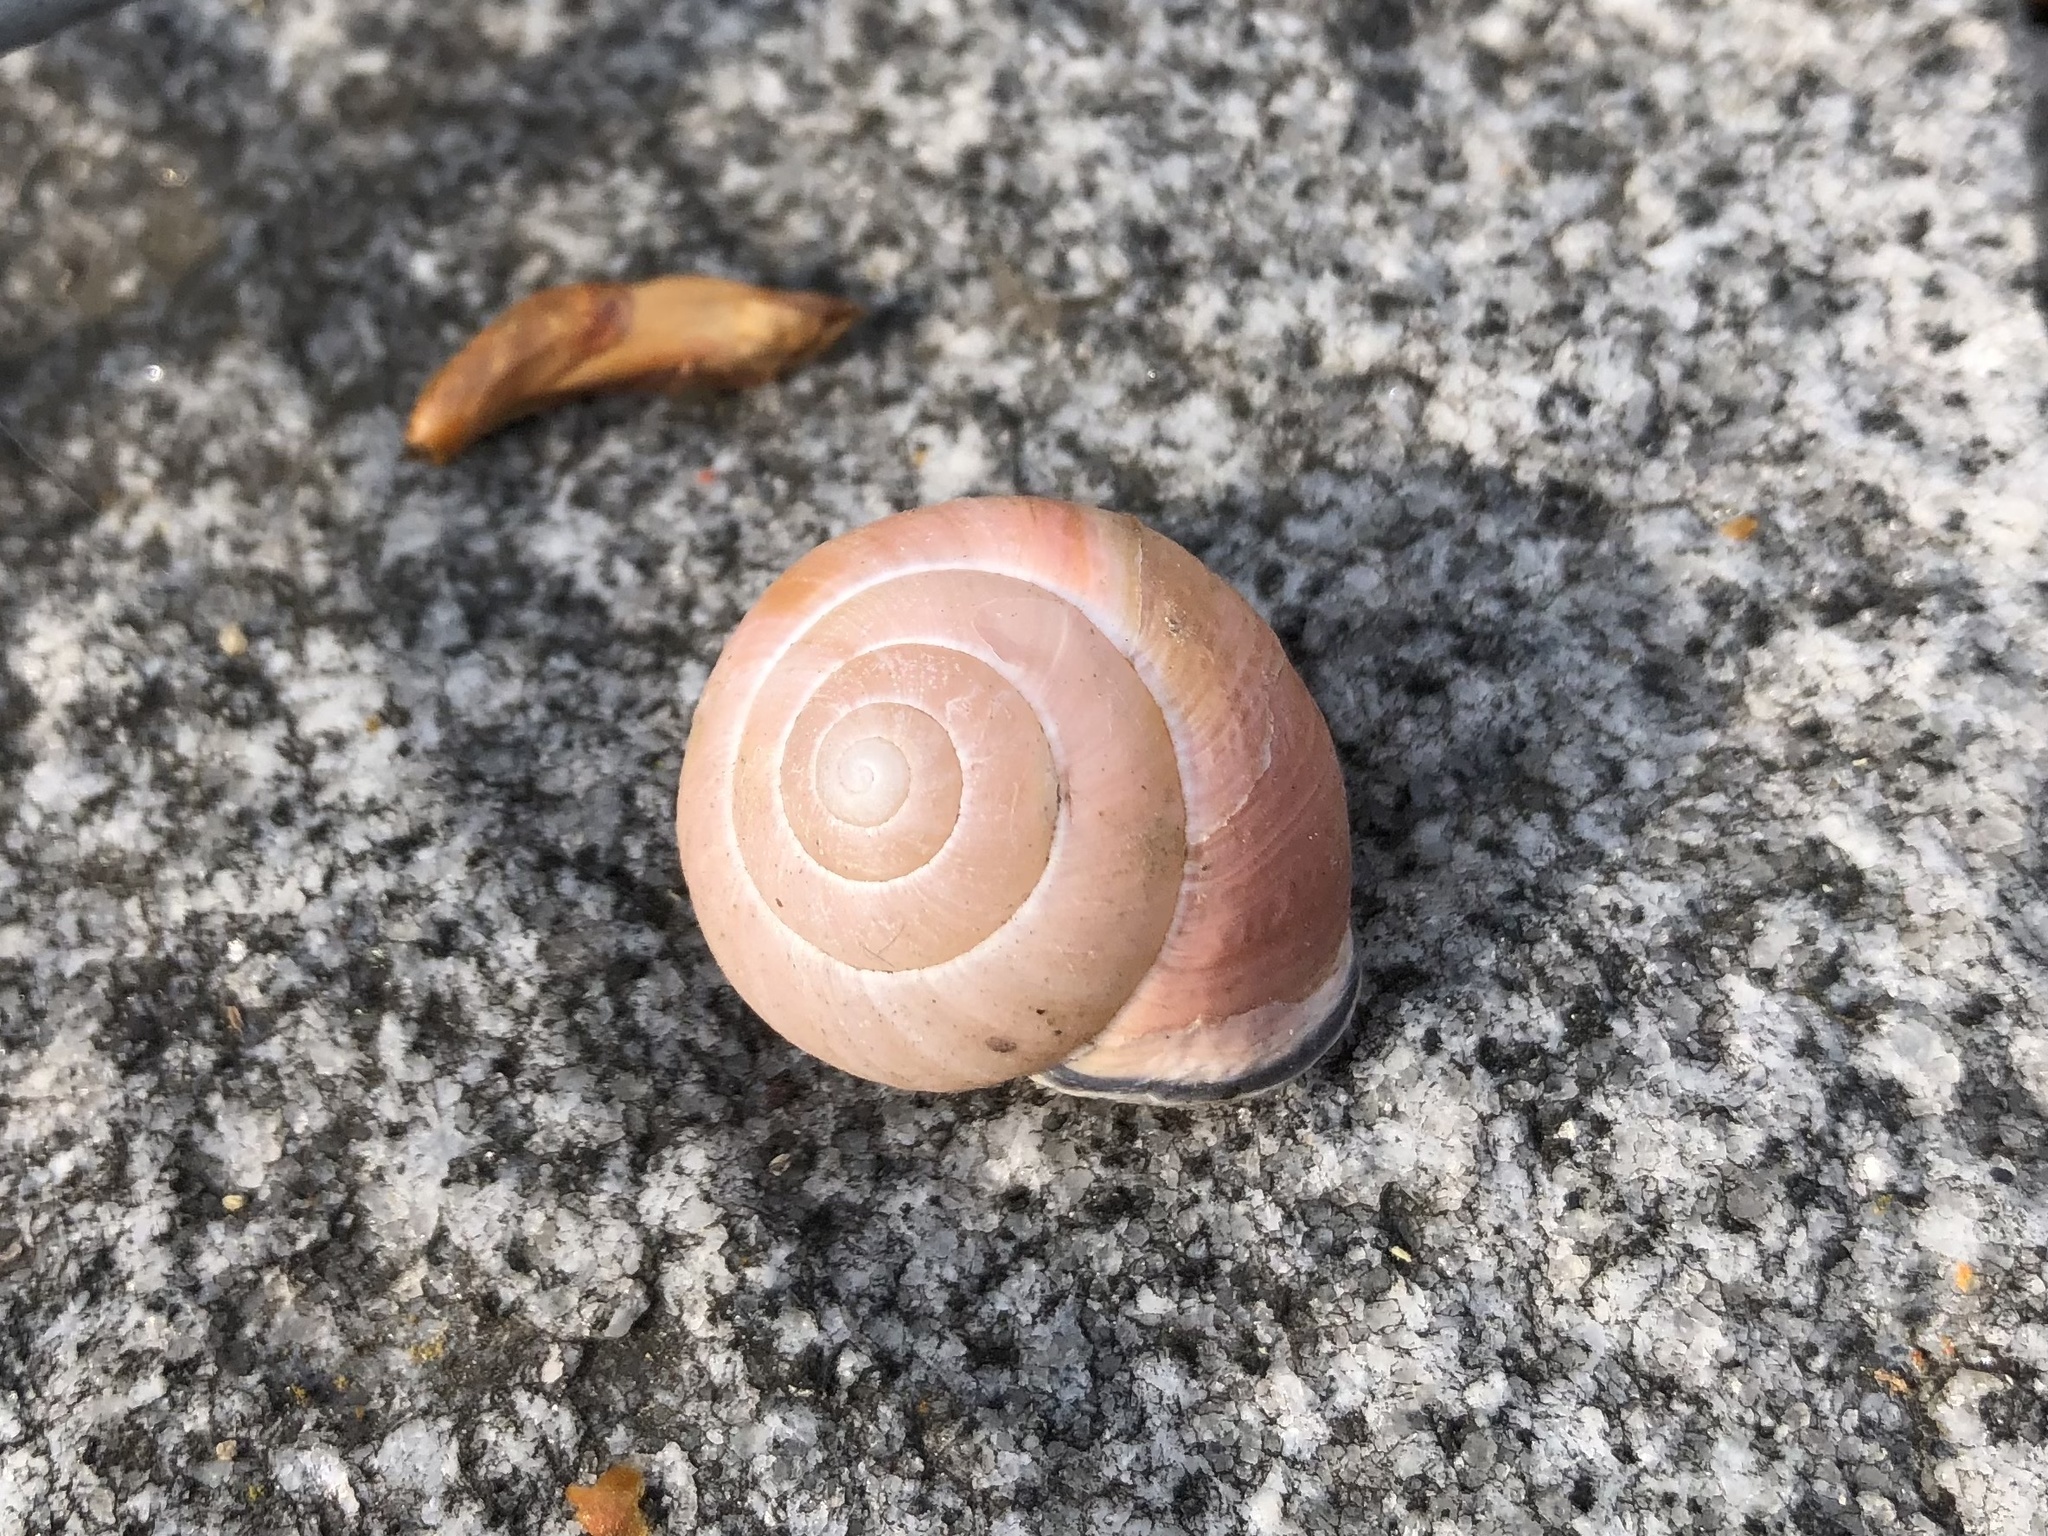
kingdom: Animalia
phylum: Mollusca
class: Gastropoda
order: Stylommatophora
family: Helicidae
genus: Cepaea
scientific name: Cepaea nemoralis
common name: Grovesnail
